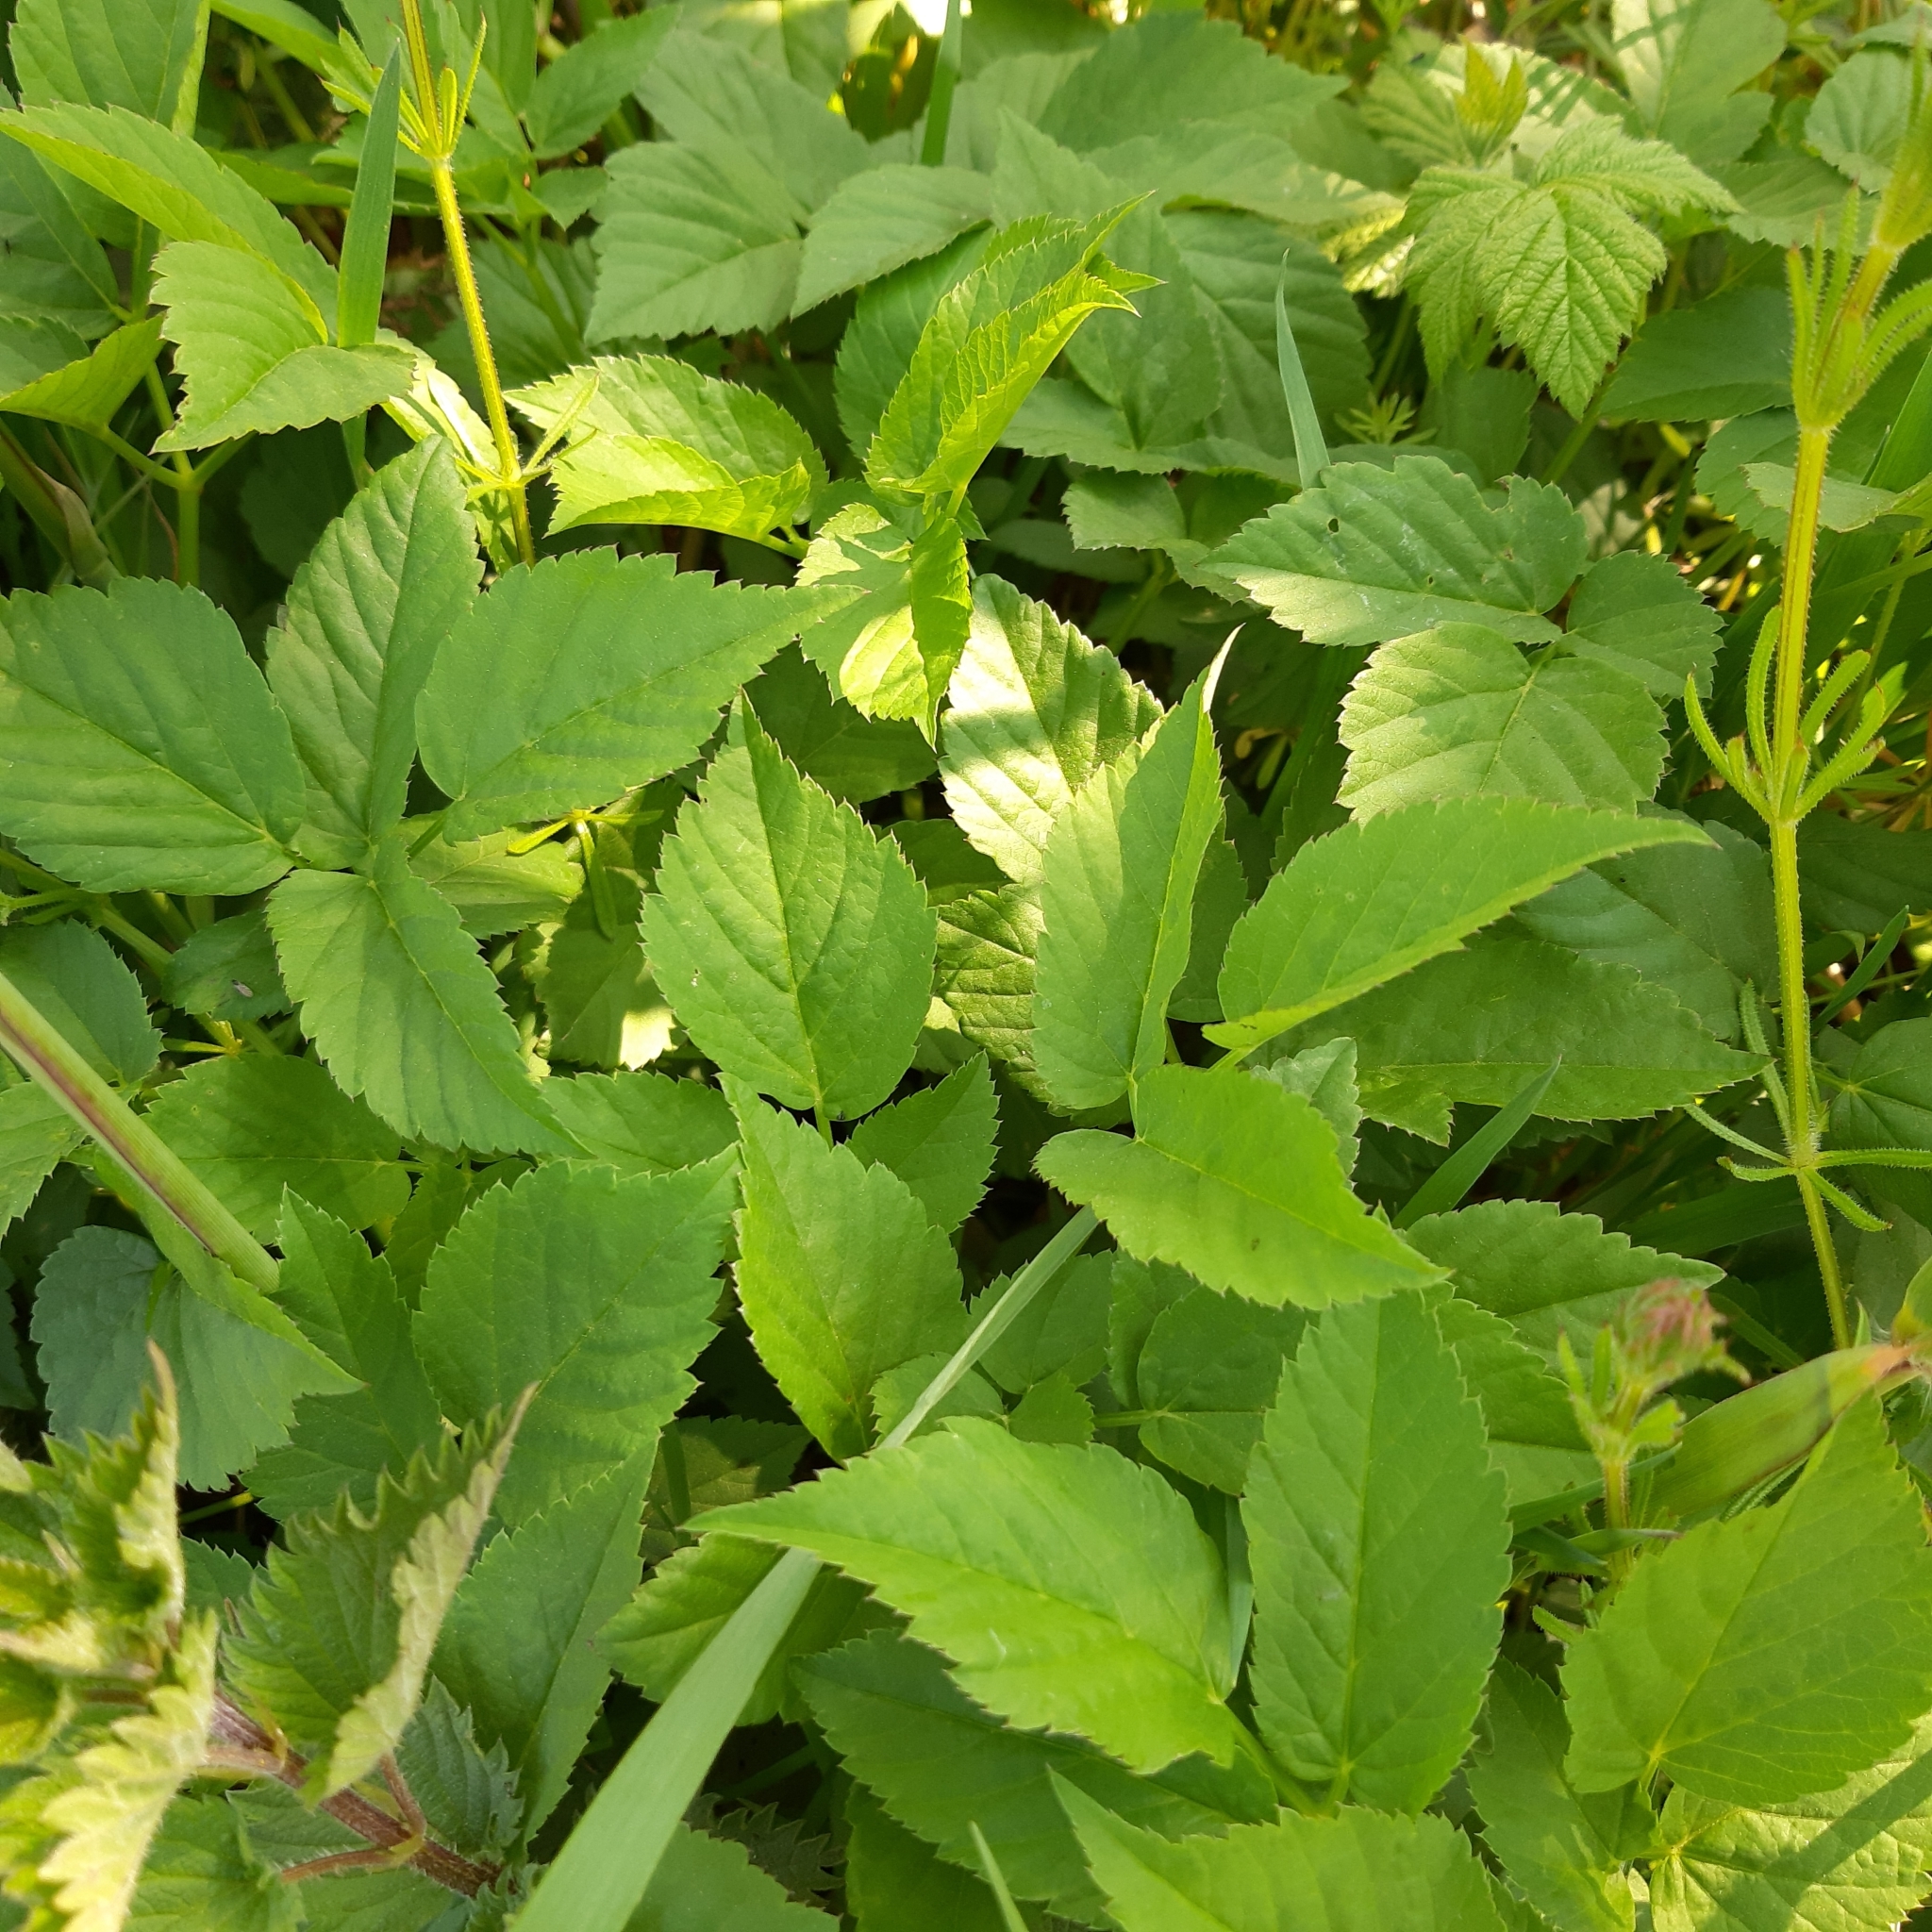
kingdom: Plantae
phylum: Tracheophyta
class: Magnoliopsida
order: Rosales
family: Urticaceae
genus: Urtica
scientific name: Urtica dioica
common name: Common nettle
